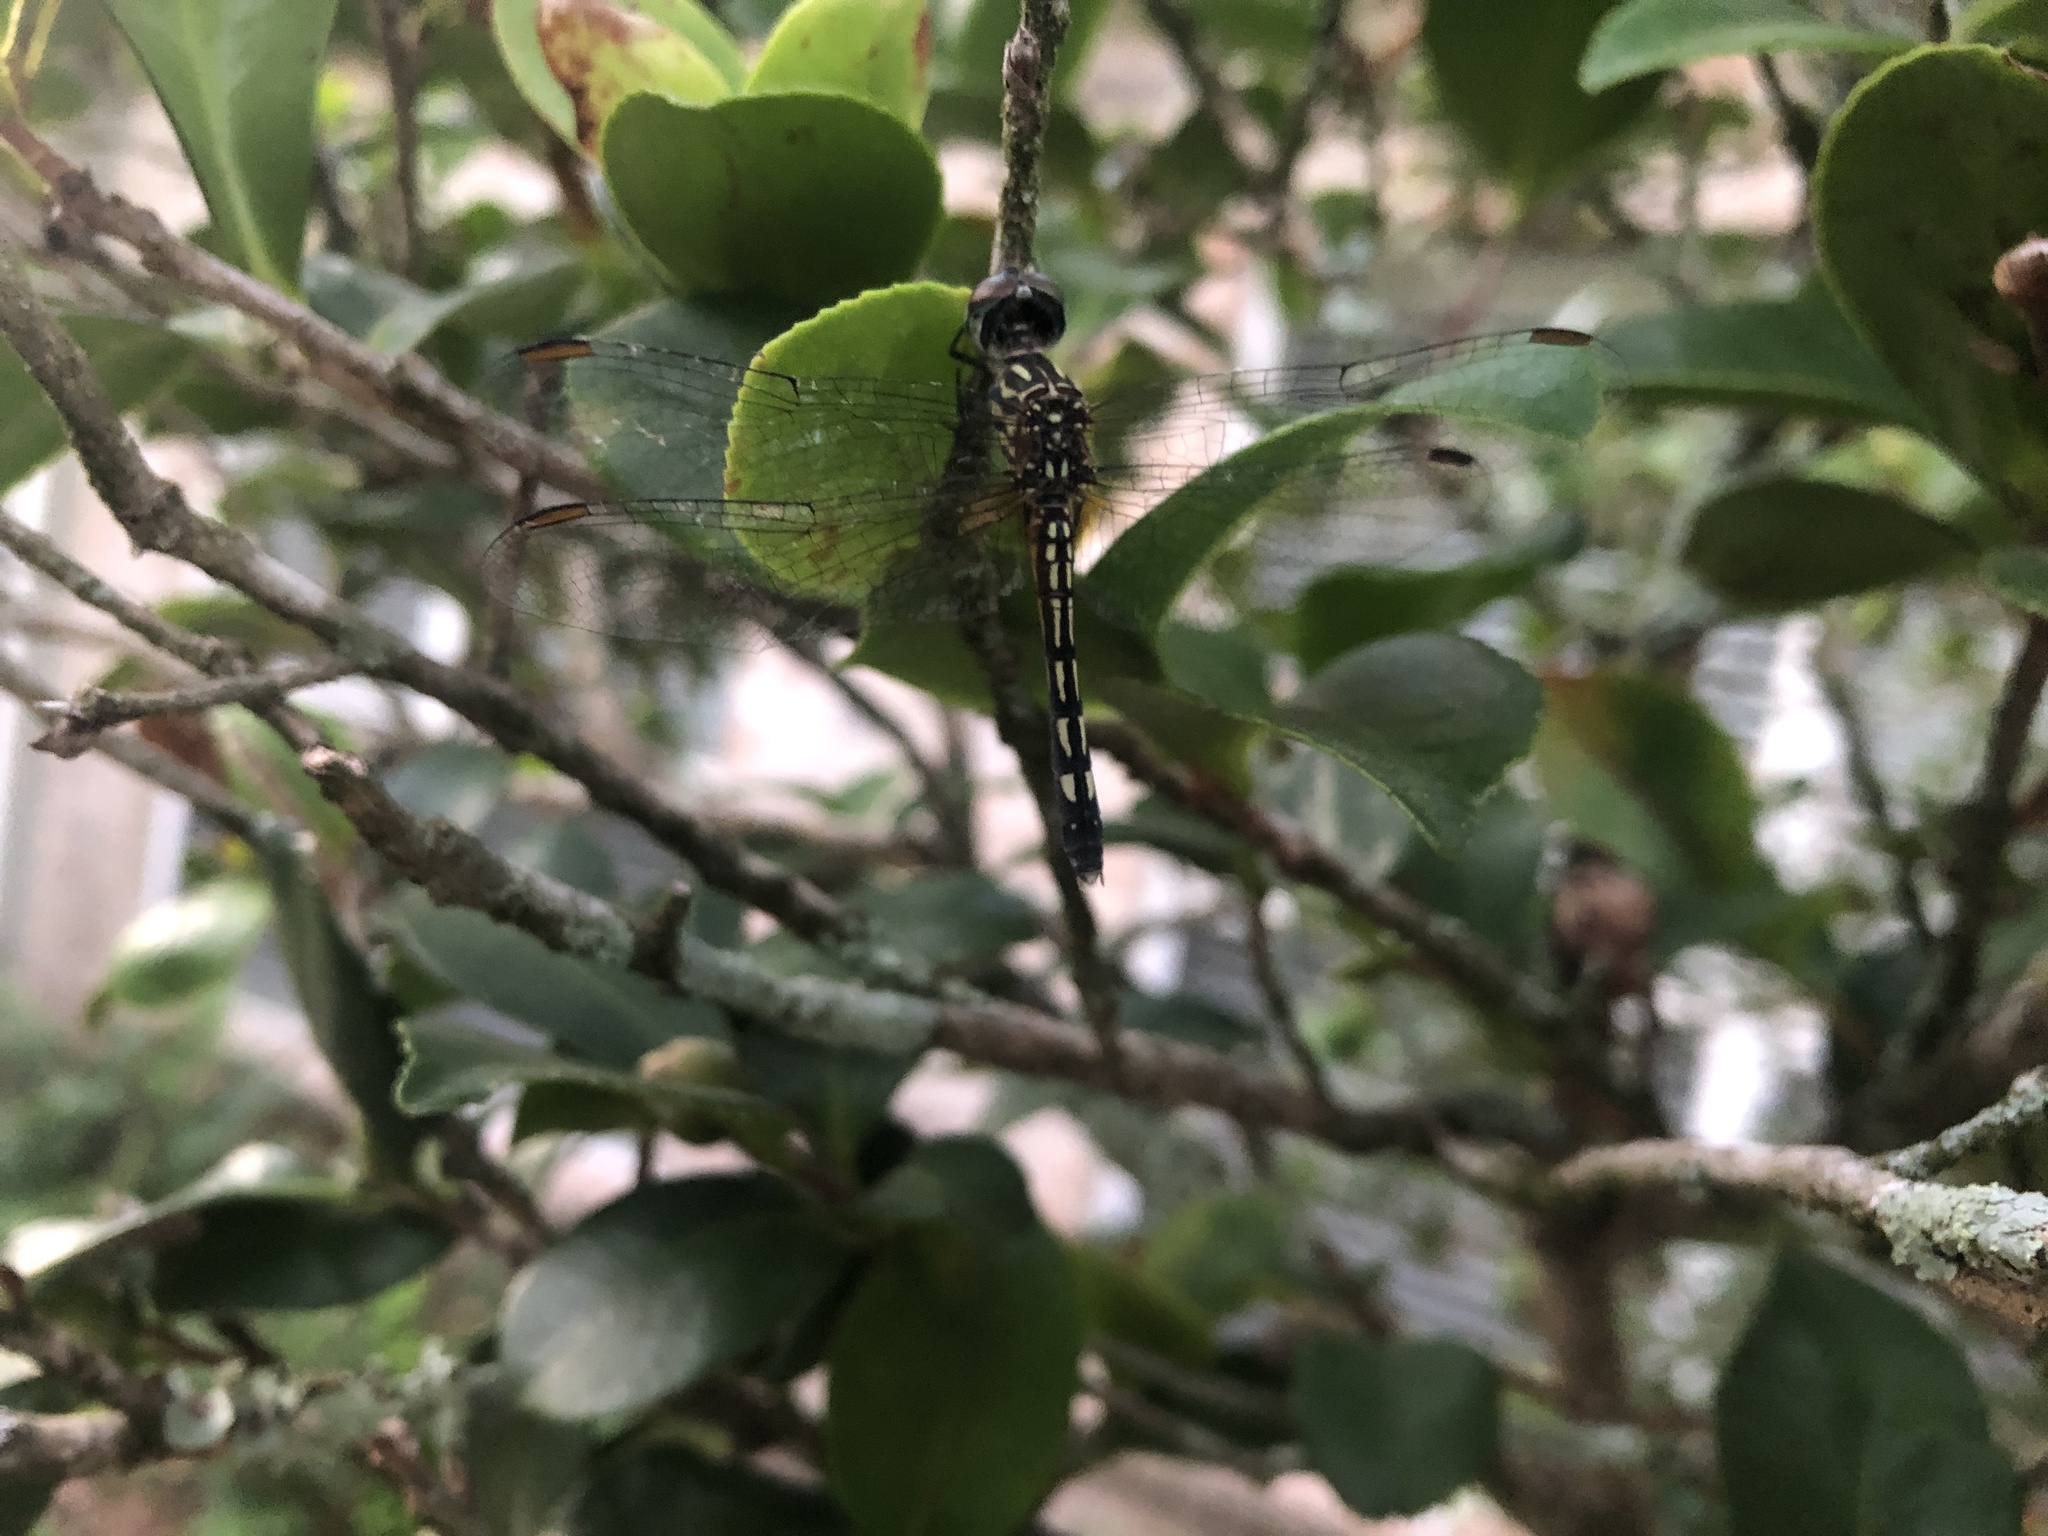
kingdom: Animalia
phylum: Arthropoda
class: Insecta
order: Odonata
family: Libellulidae
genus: Pachydiplax
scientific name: Pachydiplax longipennis
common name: Blue dasher
